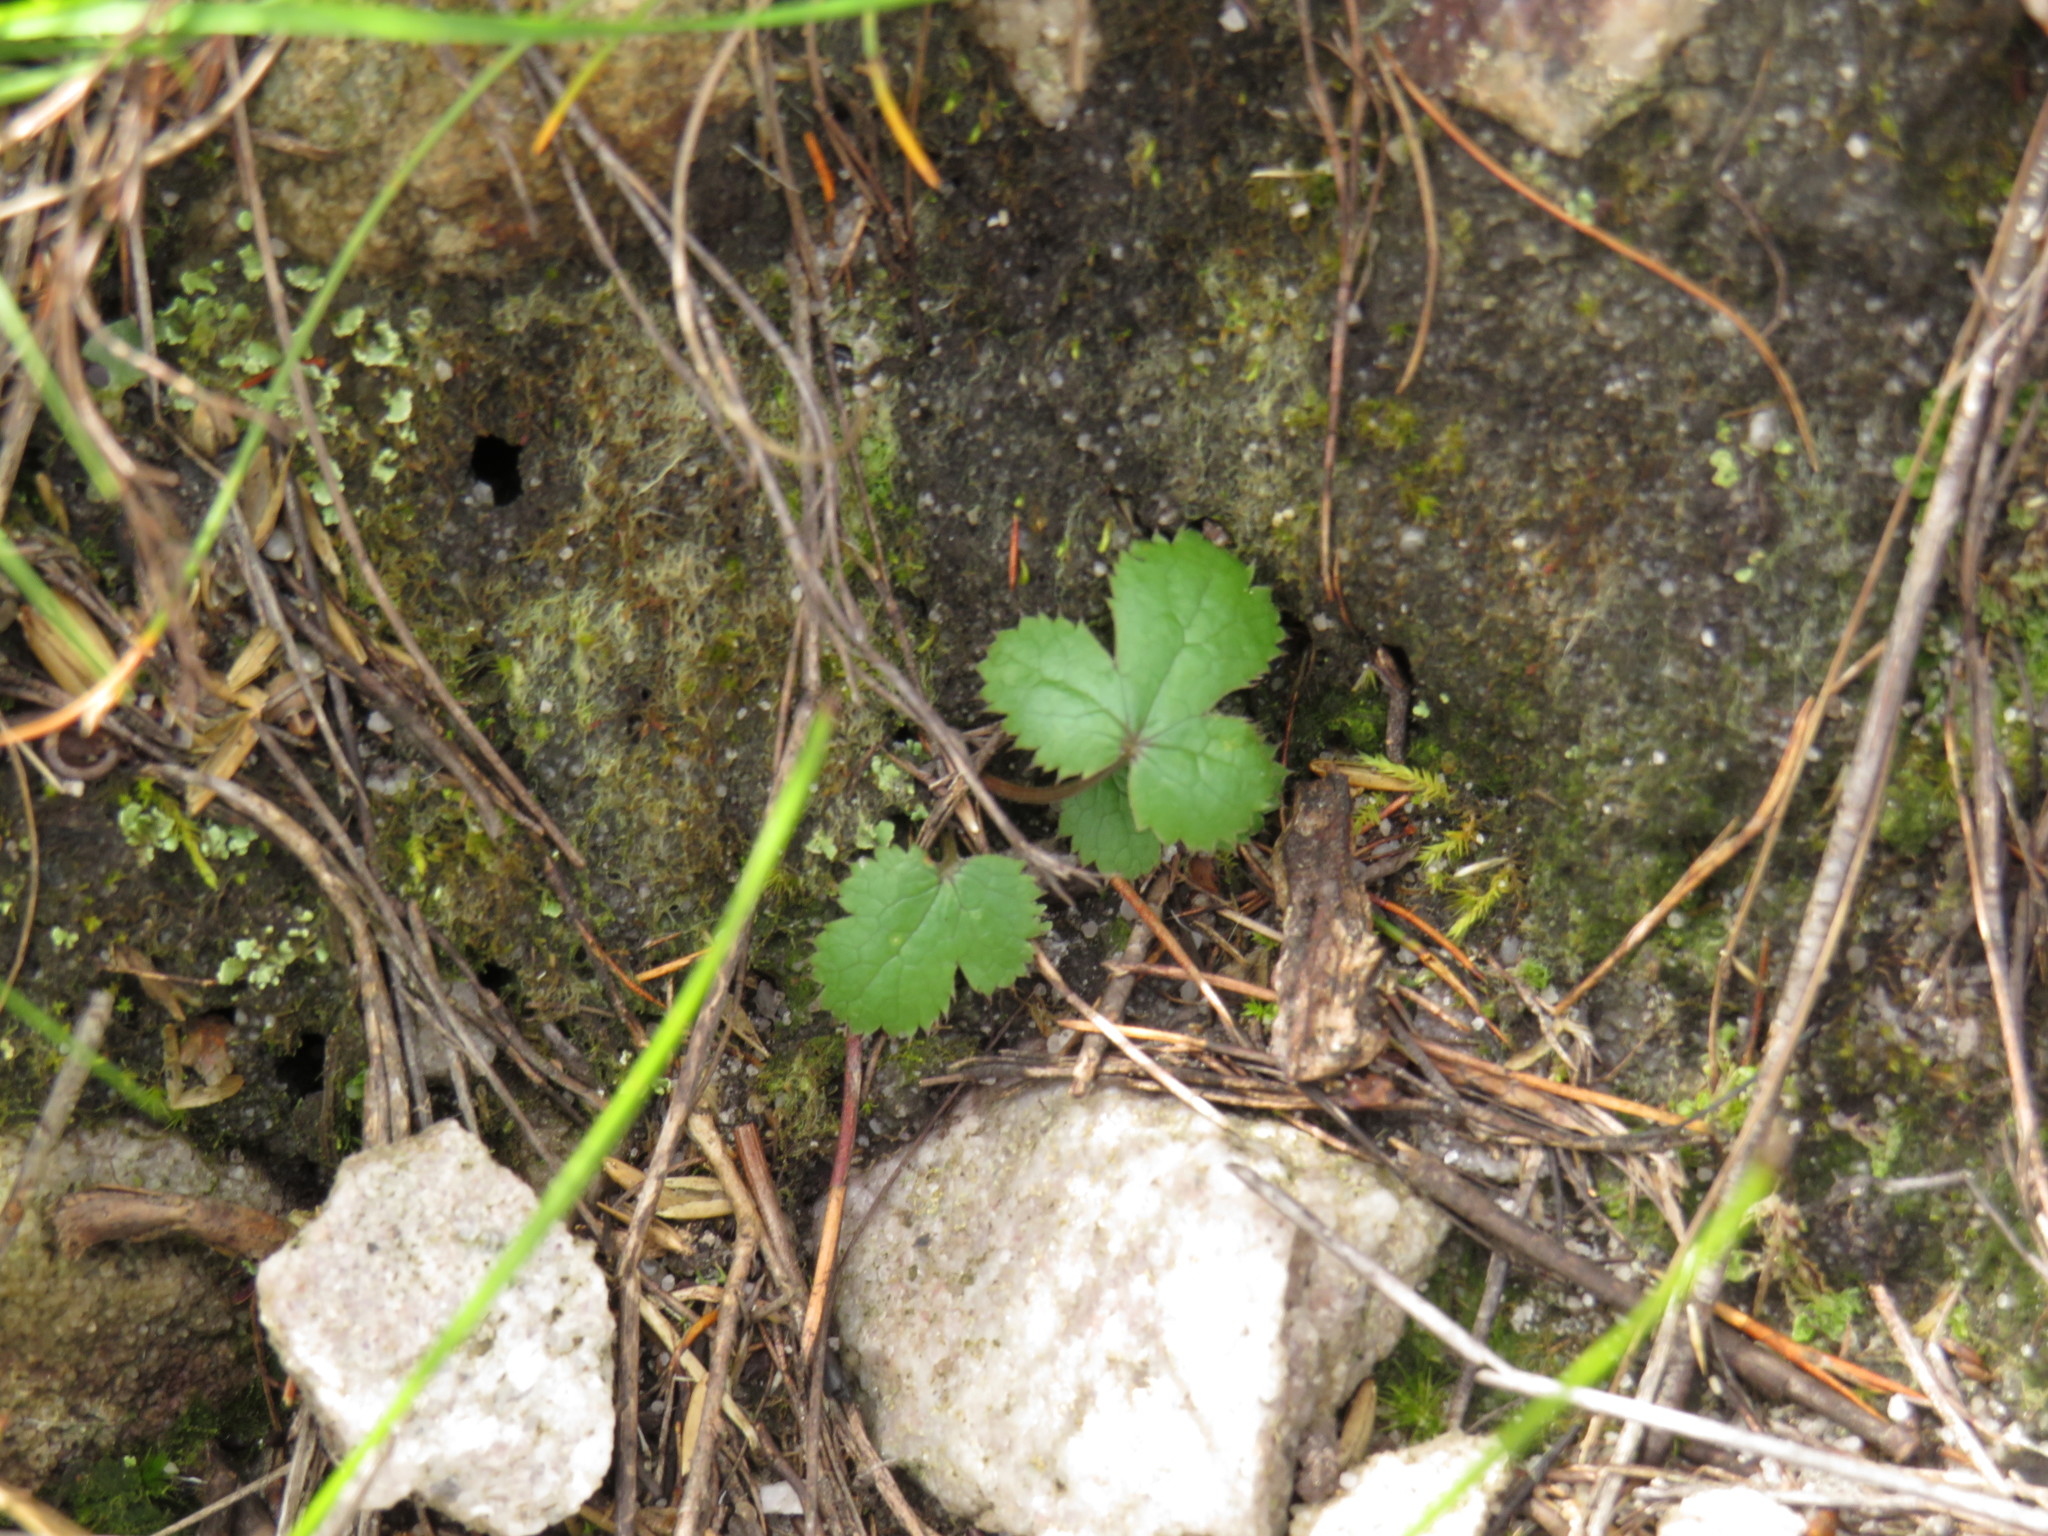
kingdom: Plantae
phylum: Tracheophyta
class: Magnoliopsida
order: Apiales
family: Apiaceae
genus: Chamarea
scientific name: Chamarea gracillima
